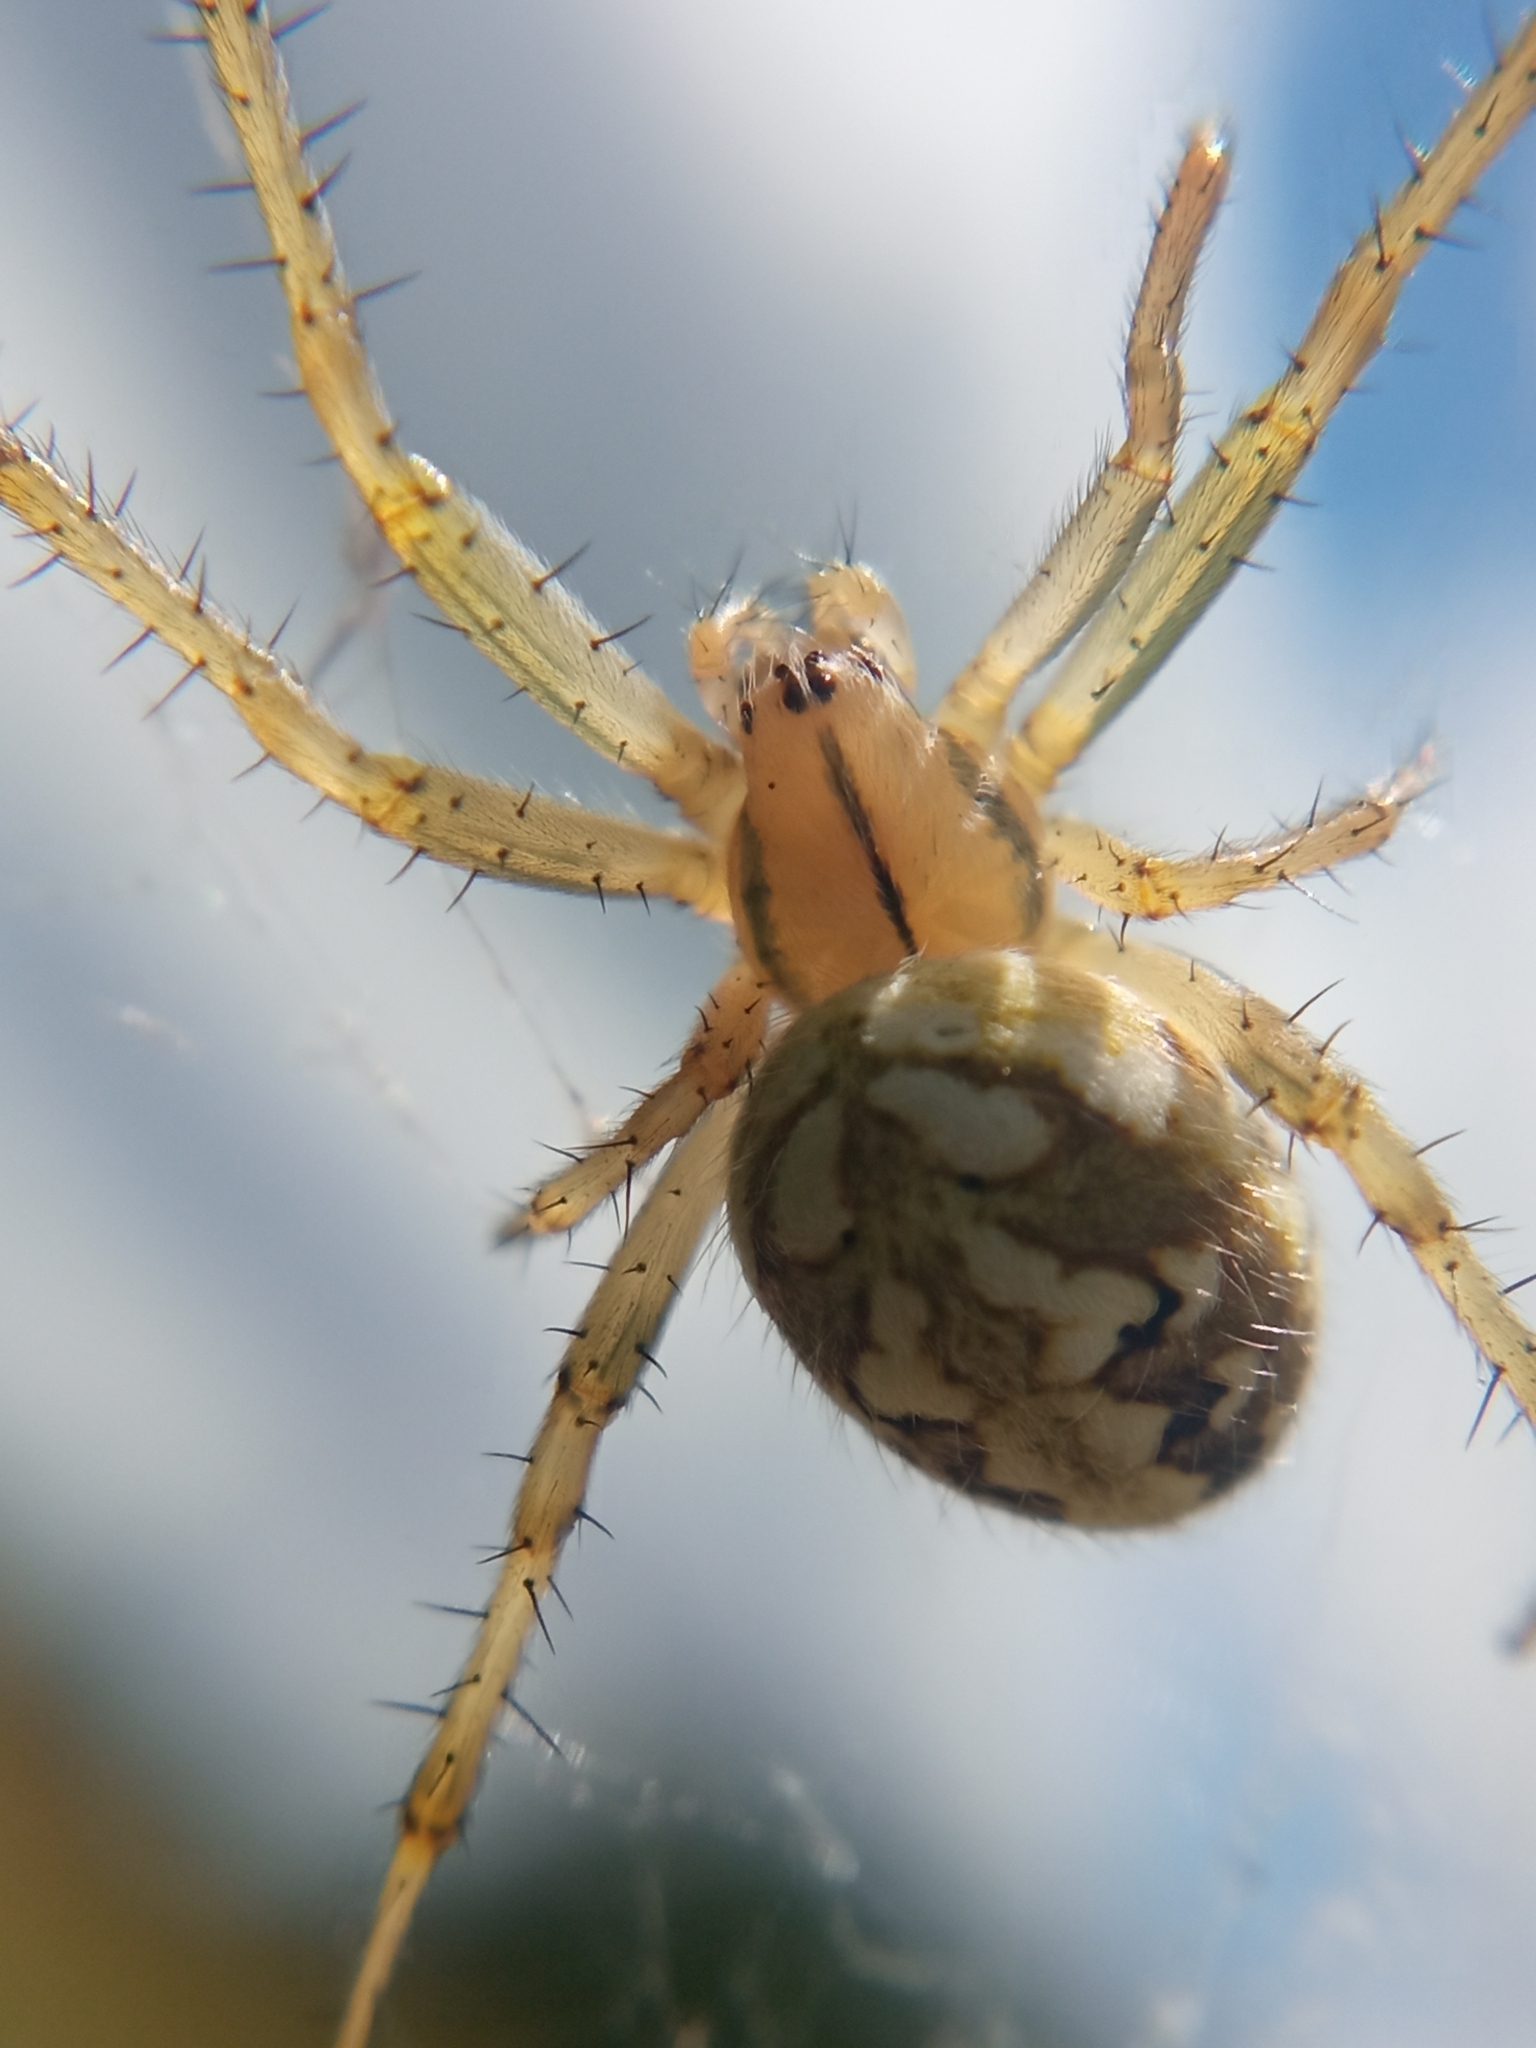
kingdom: Animalia
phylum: Arthropoda
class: Arachnida
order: Araneae
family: Araneidae
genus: Neoscona
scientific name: Neoscona adianta
